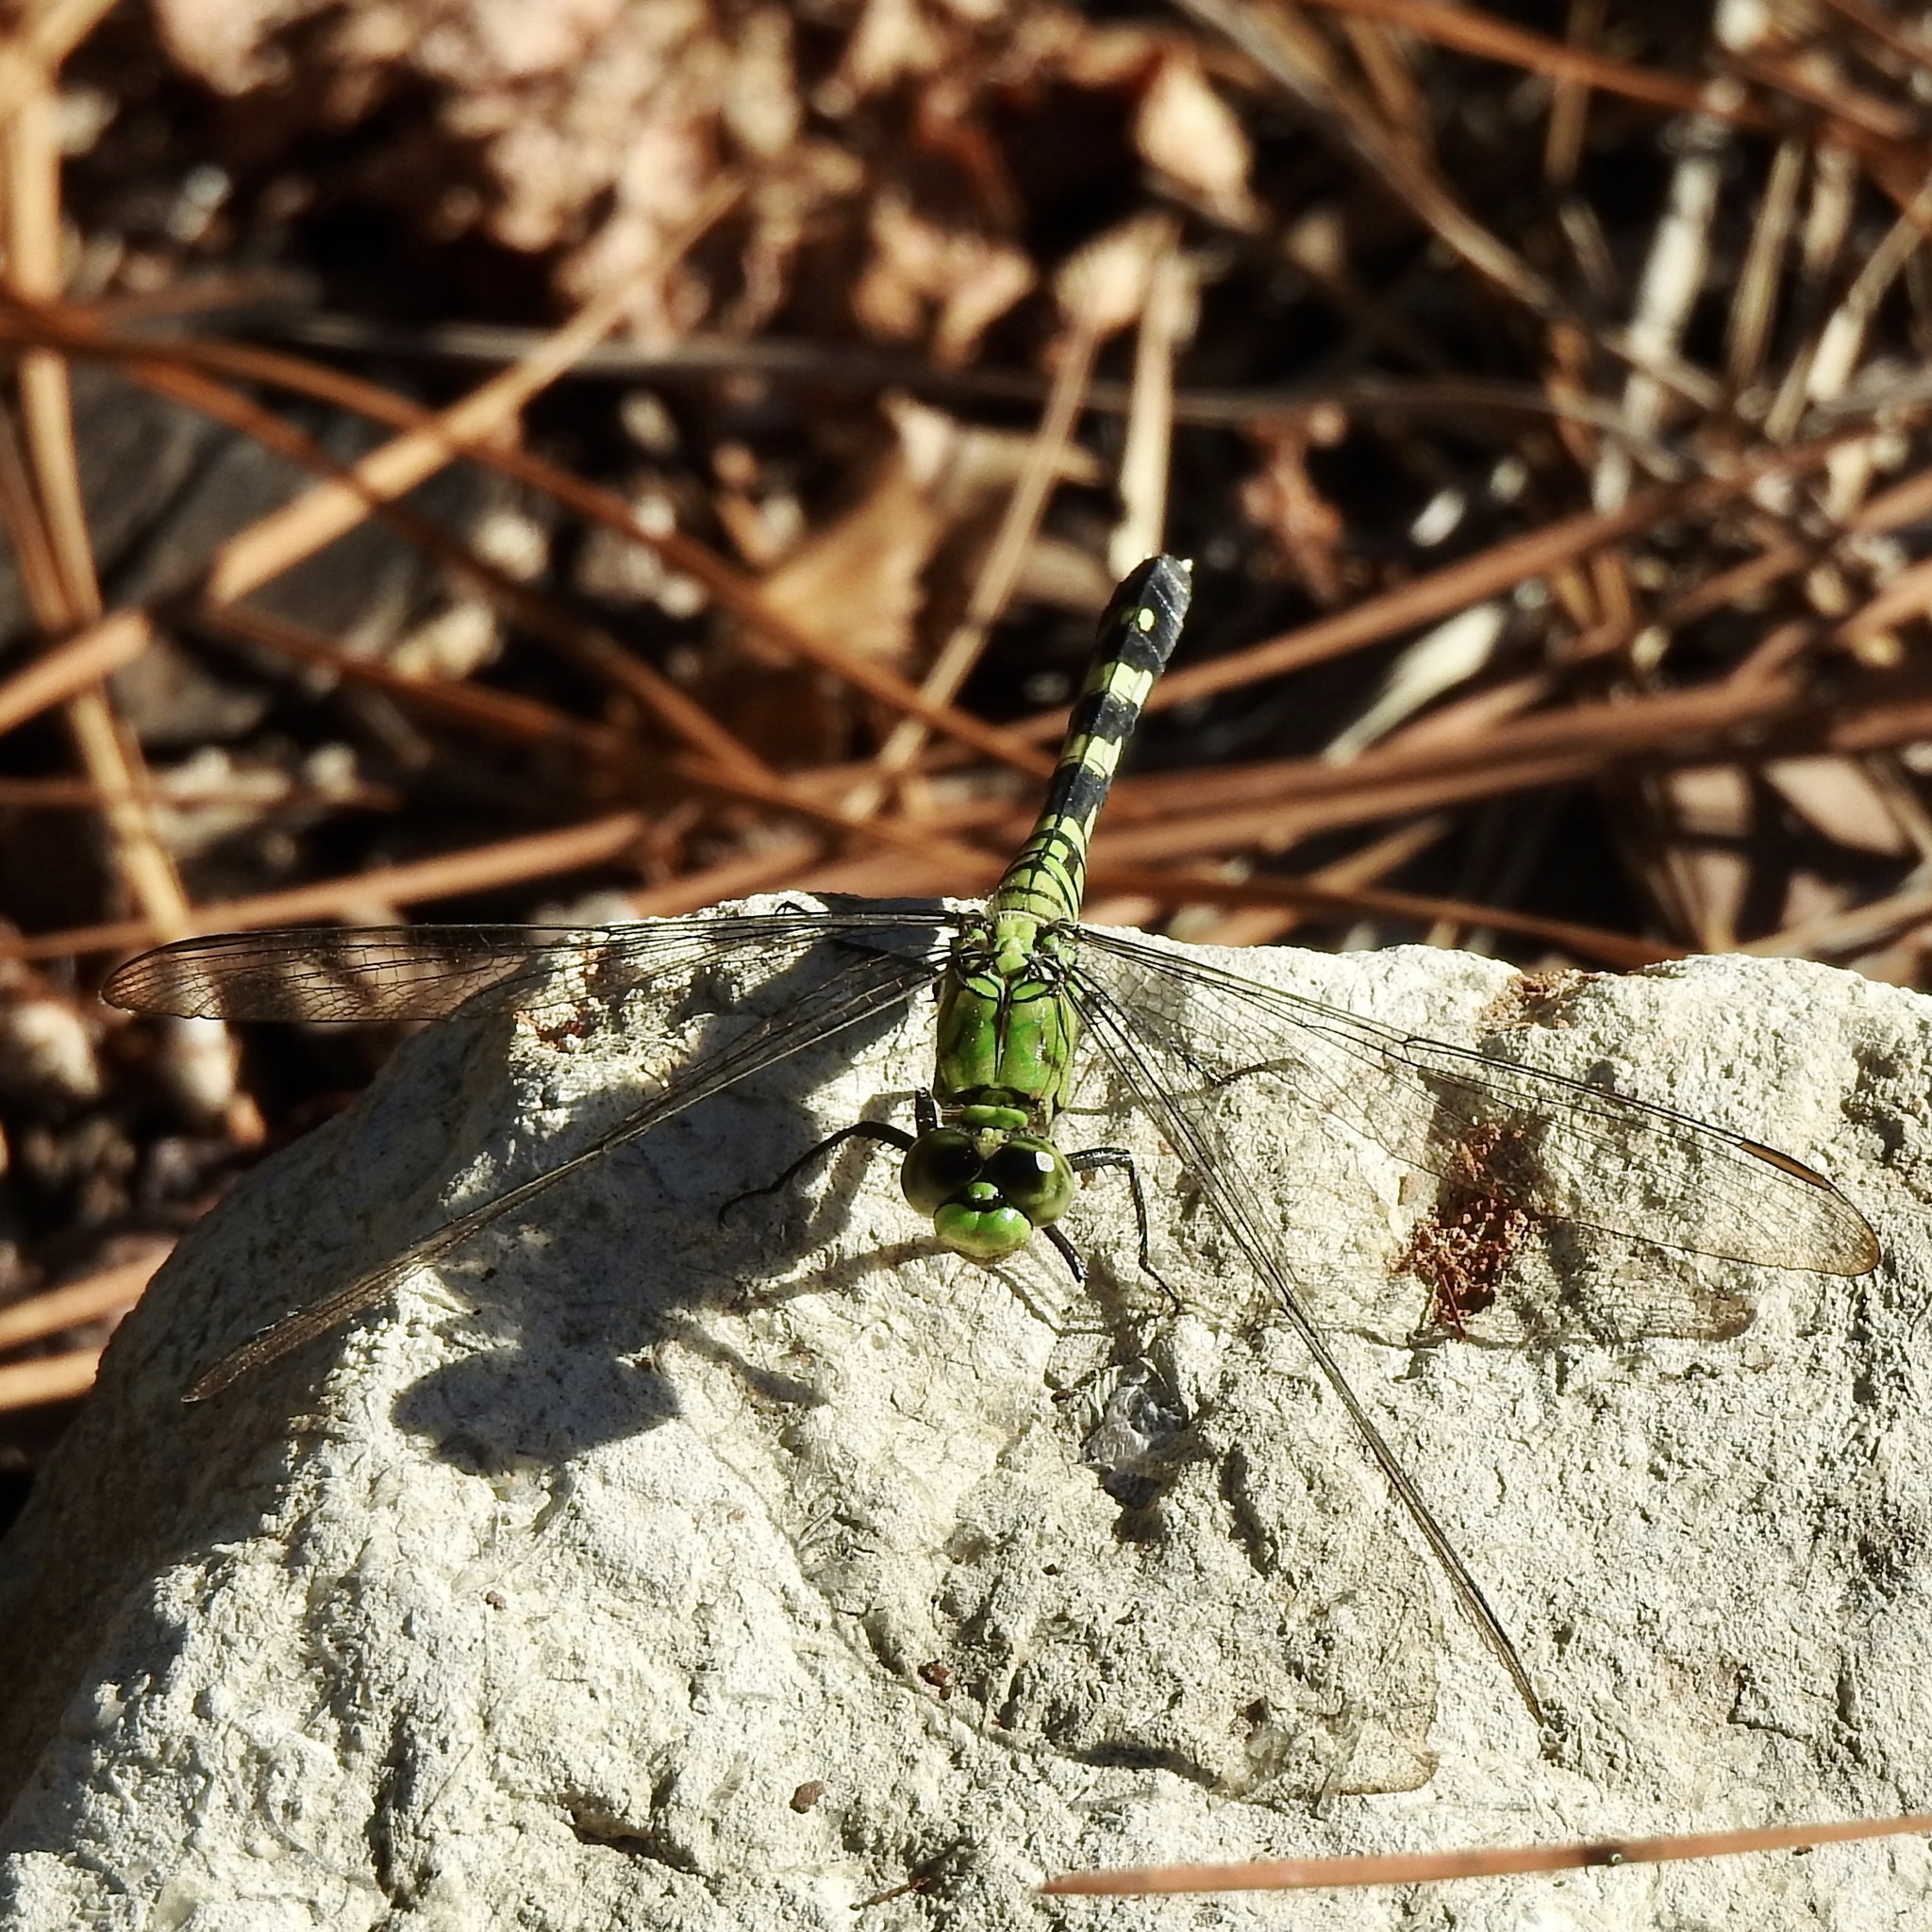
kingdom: Animalia
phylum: Arthropoda
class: Insecta
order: Odonata
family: Libellulidae
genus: Erythemis
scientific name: Erythemis simplicicollis
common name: Eastern pondhawk
